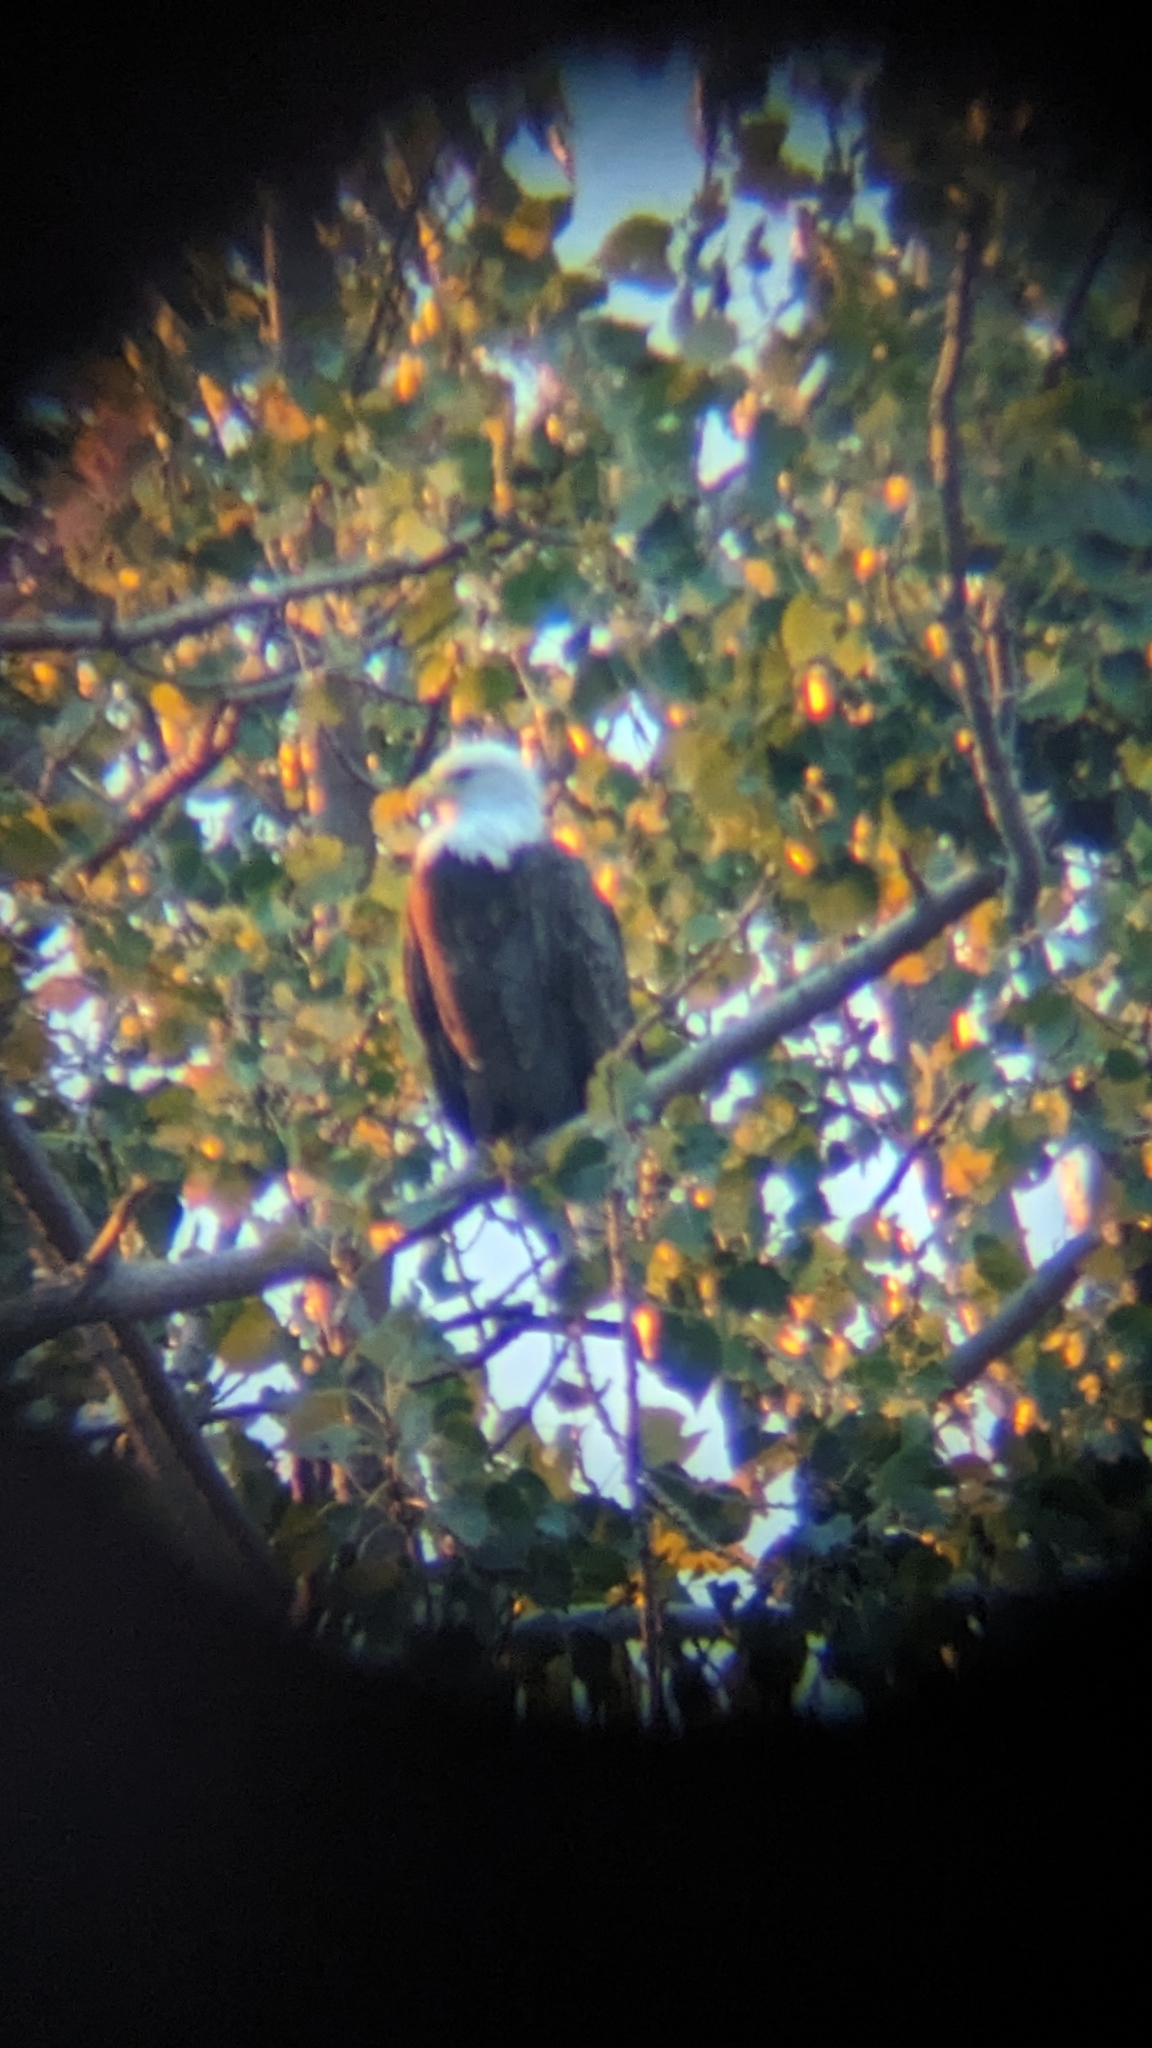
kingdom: Animalia
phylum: Chordata
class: Aves
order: Accipitriformes
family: Accipitridae
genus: Haliaeetus
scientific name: Haliaeetus leucocephalus
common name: Bald eagle
